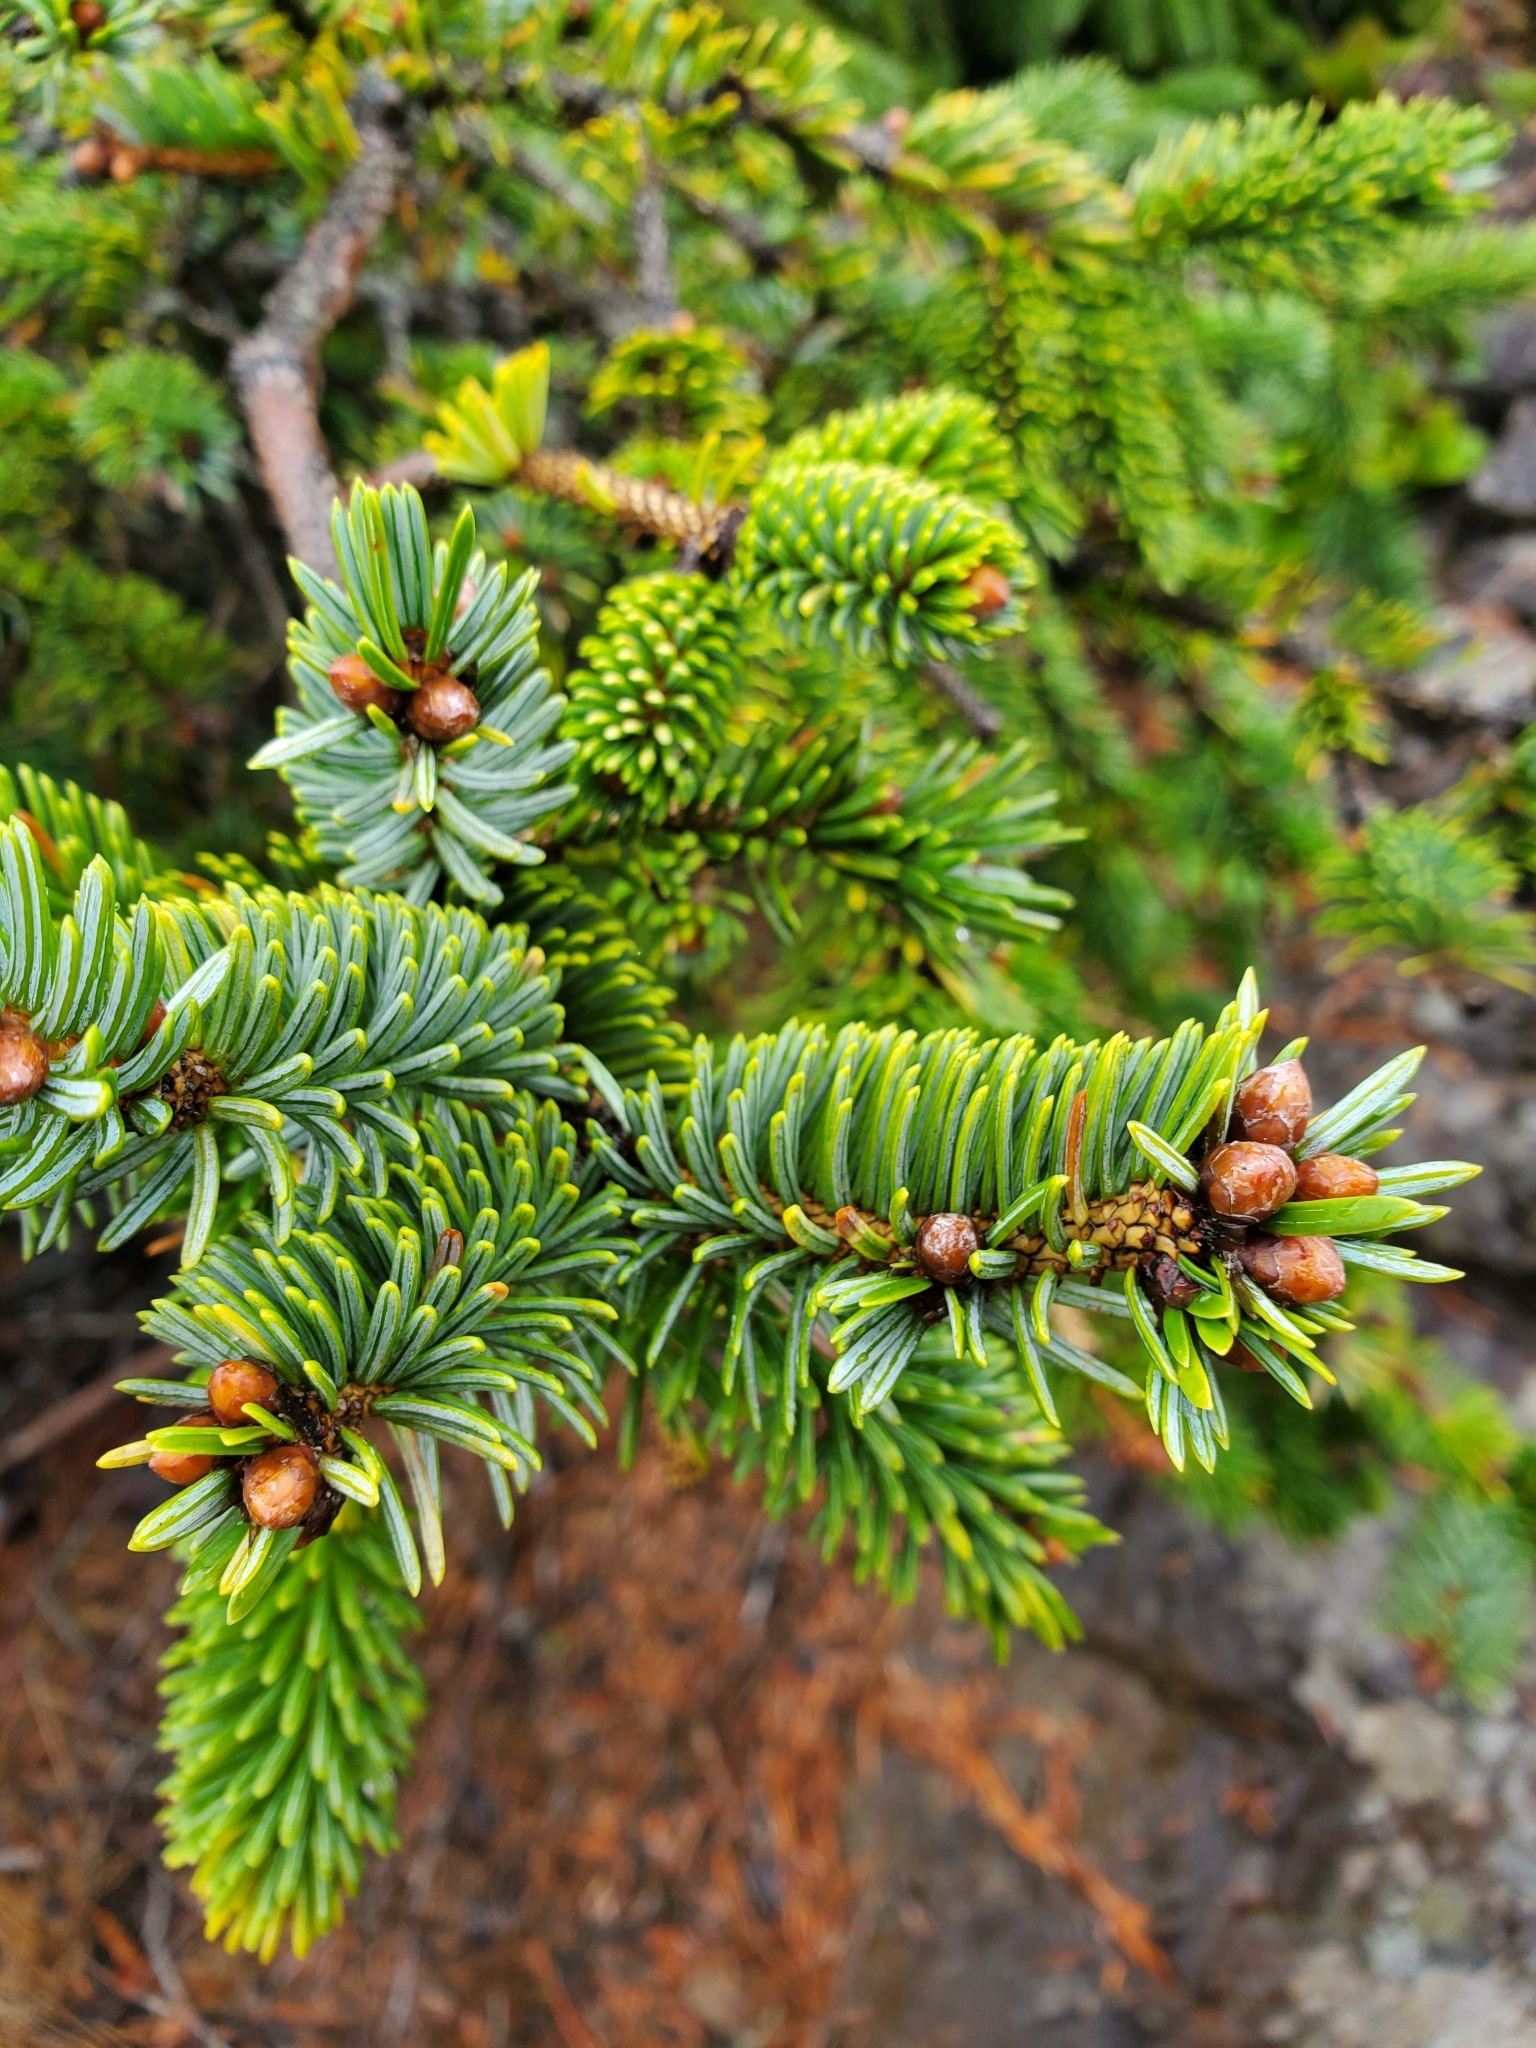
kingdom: Plantae
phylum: Tracheophyta
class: Pinopsida
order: Pinales
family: Pinaceae
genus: Picea
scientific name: Picea sitchensis
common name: Sitka spruce
